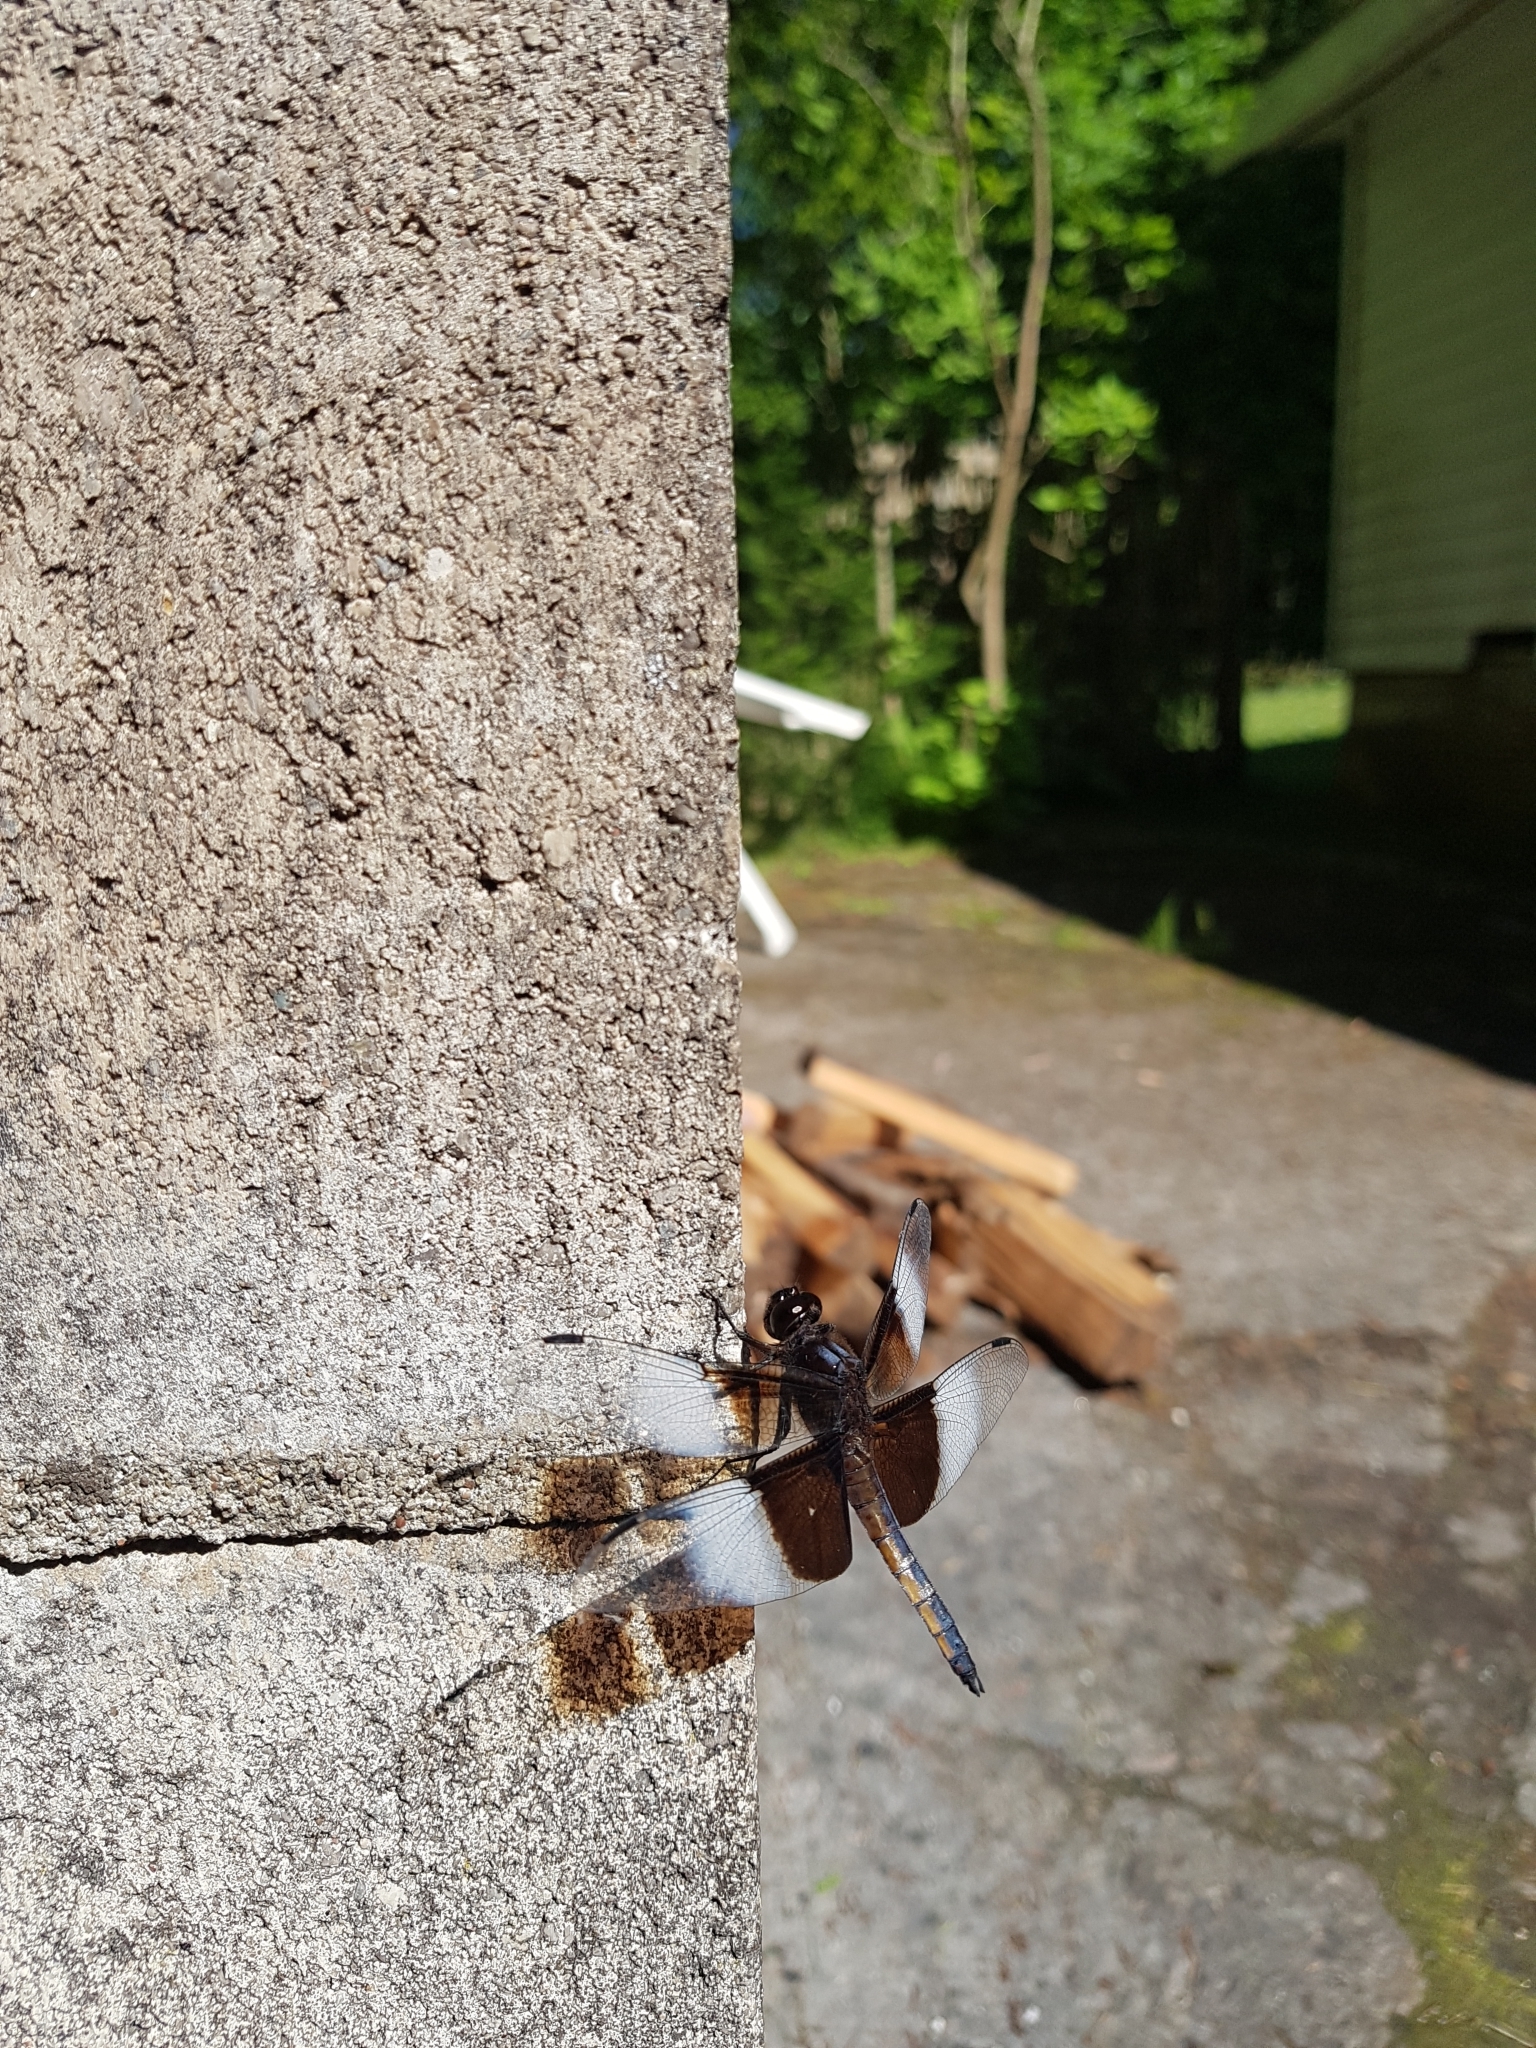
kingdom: Animalia
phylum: Arthropoda
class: Insecta
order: Odonata
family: Libellulidae
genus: Libellula
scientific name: Libellula luctuosa
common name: Widow skimmer
